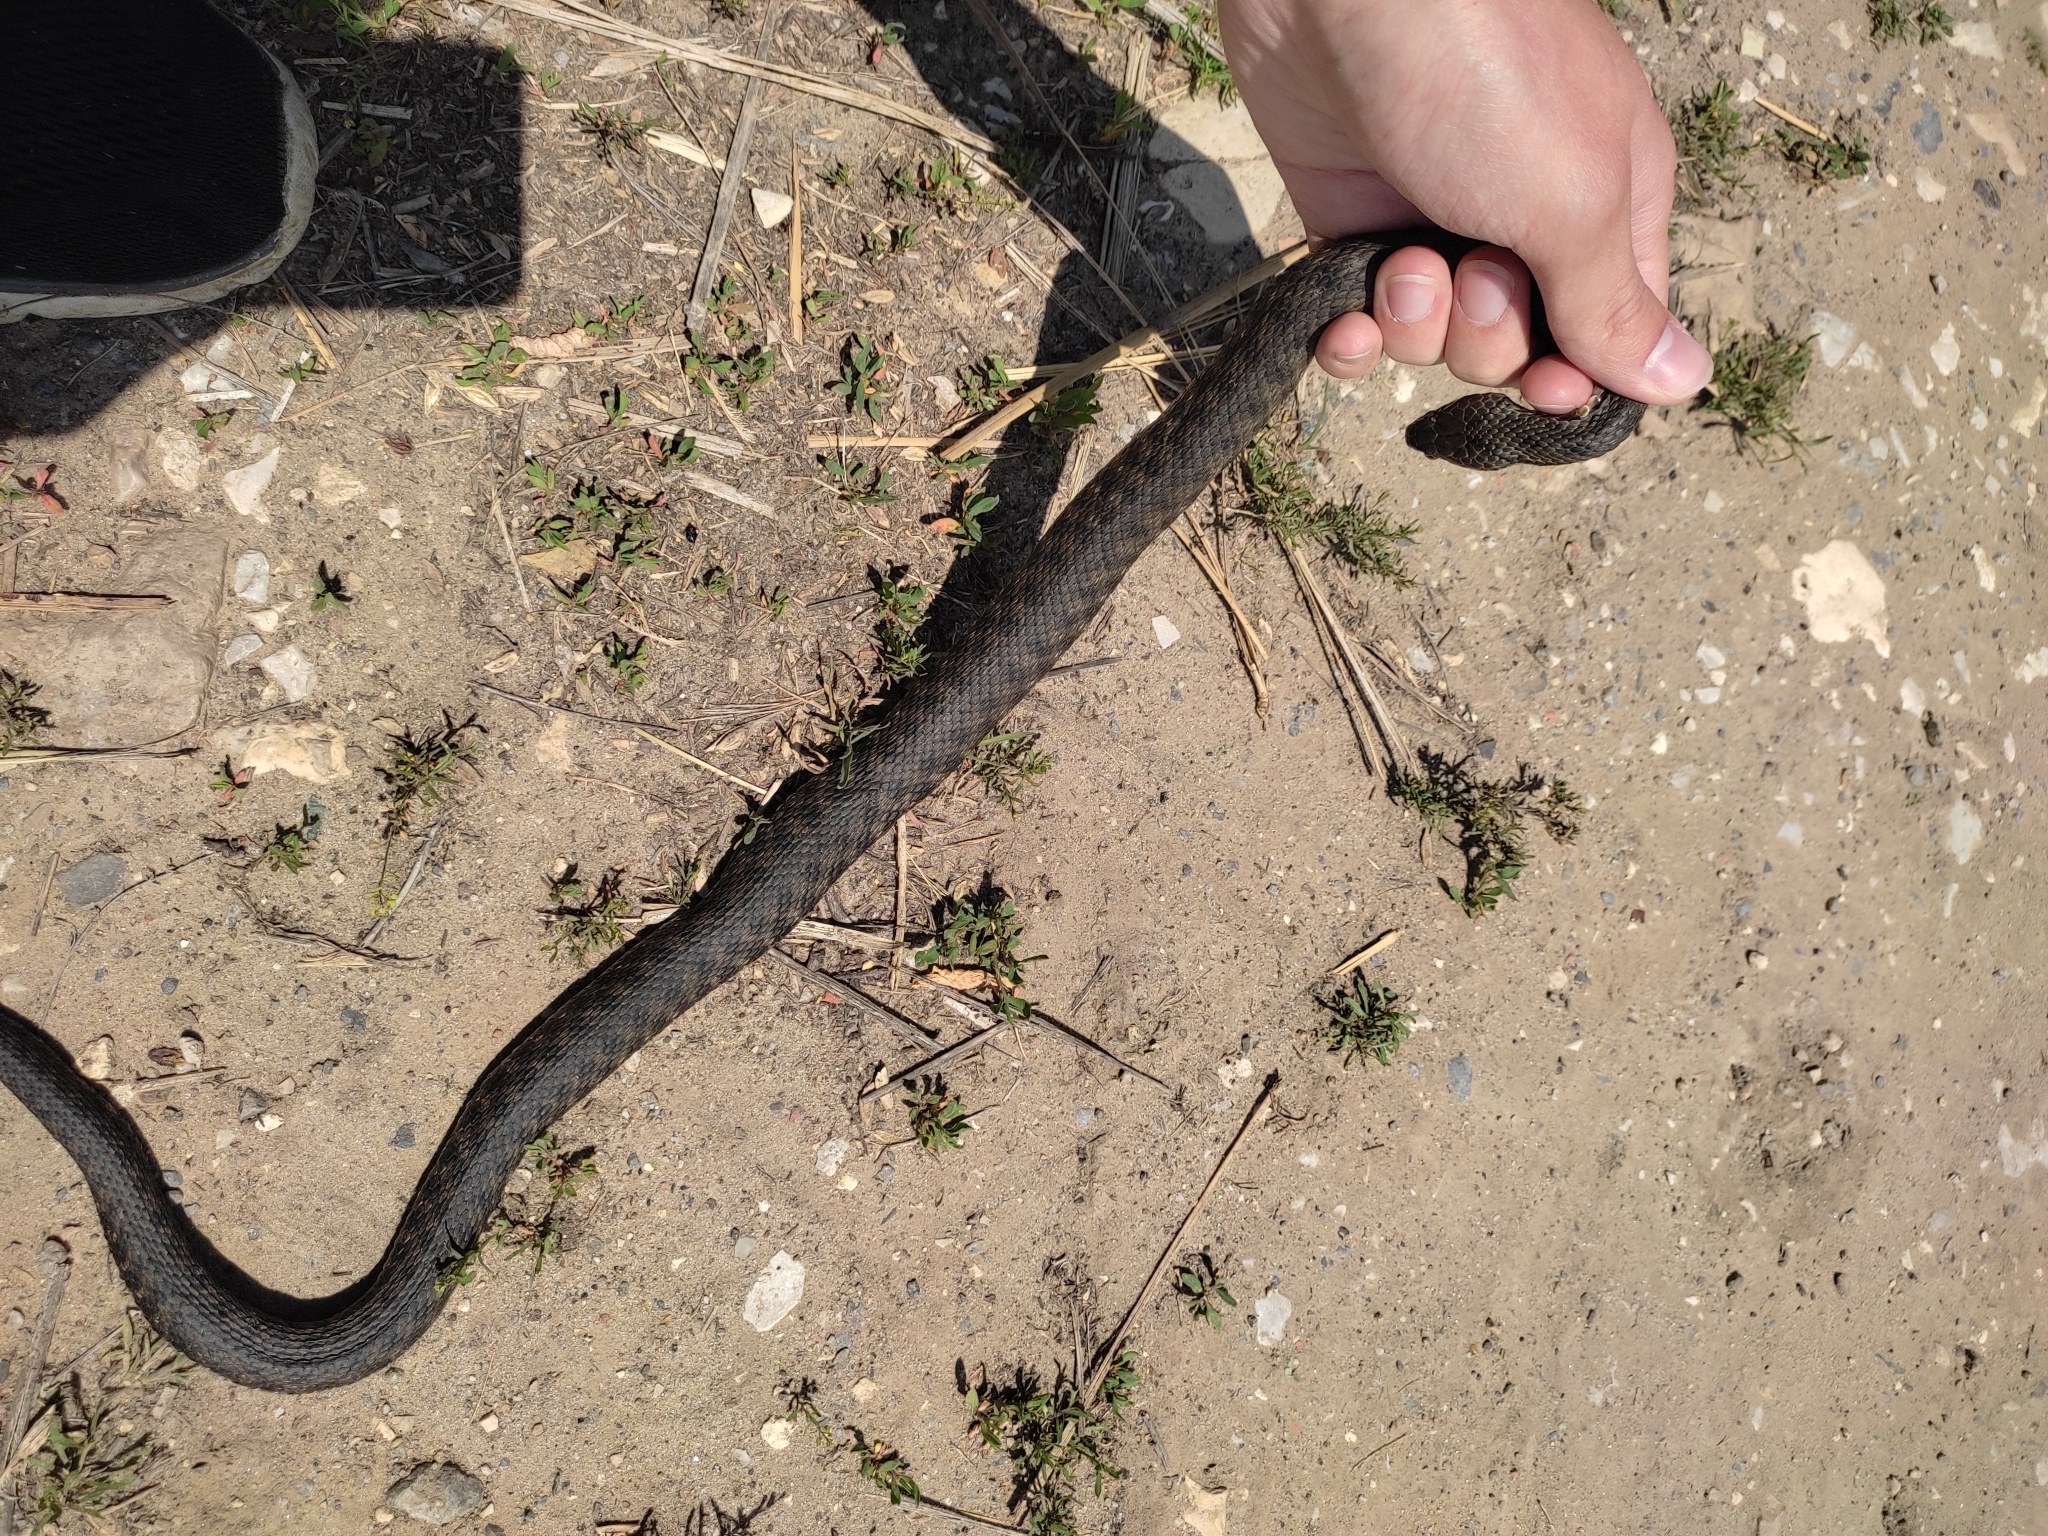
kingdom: Animalia
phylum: Chordata
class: Squamata
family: Colubridae
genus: Natrix
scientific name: Natrix tessellata
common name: Dice snake
